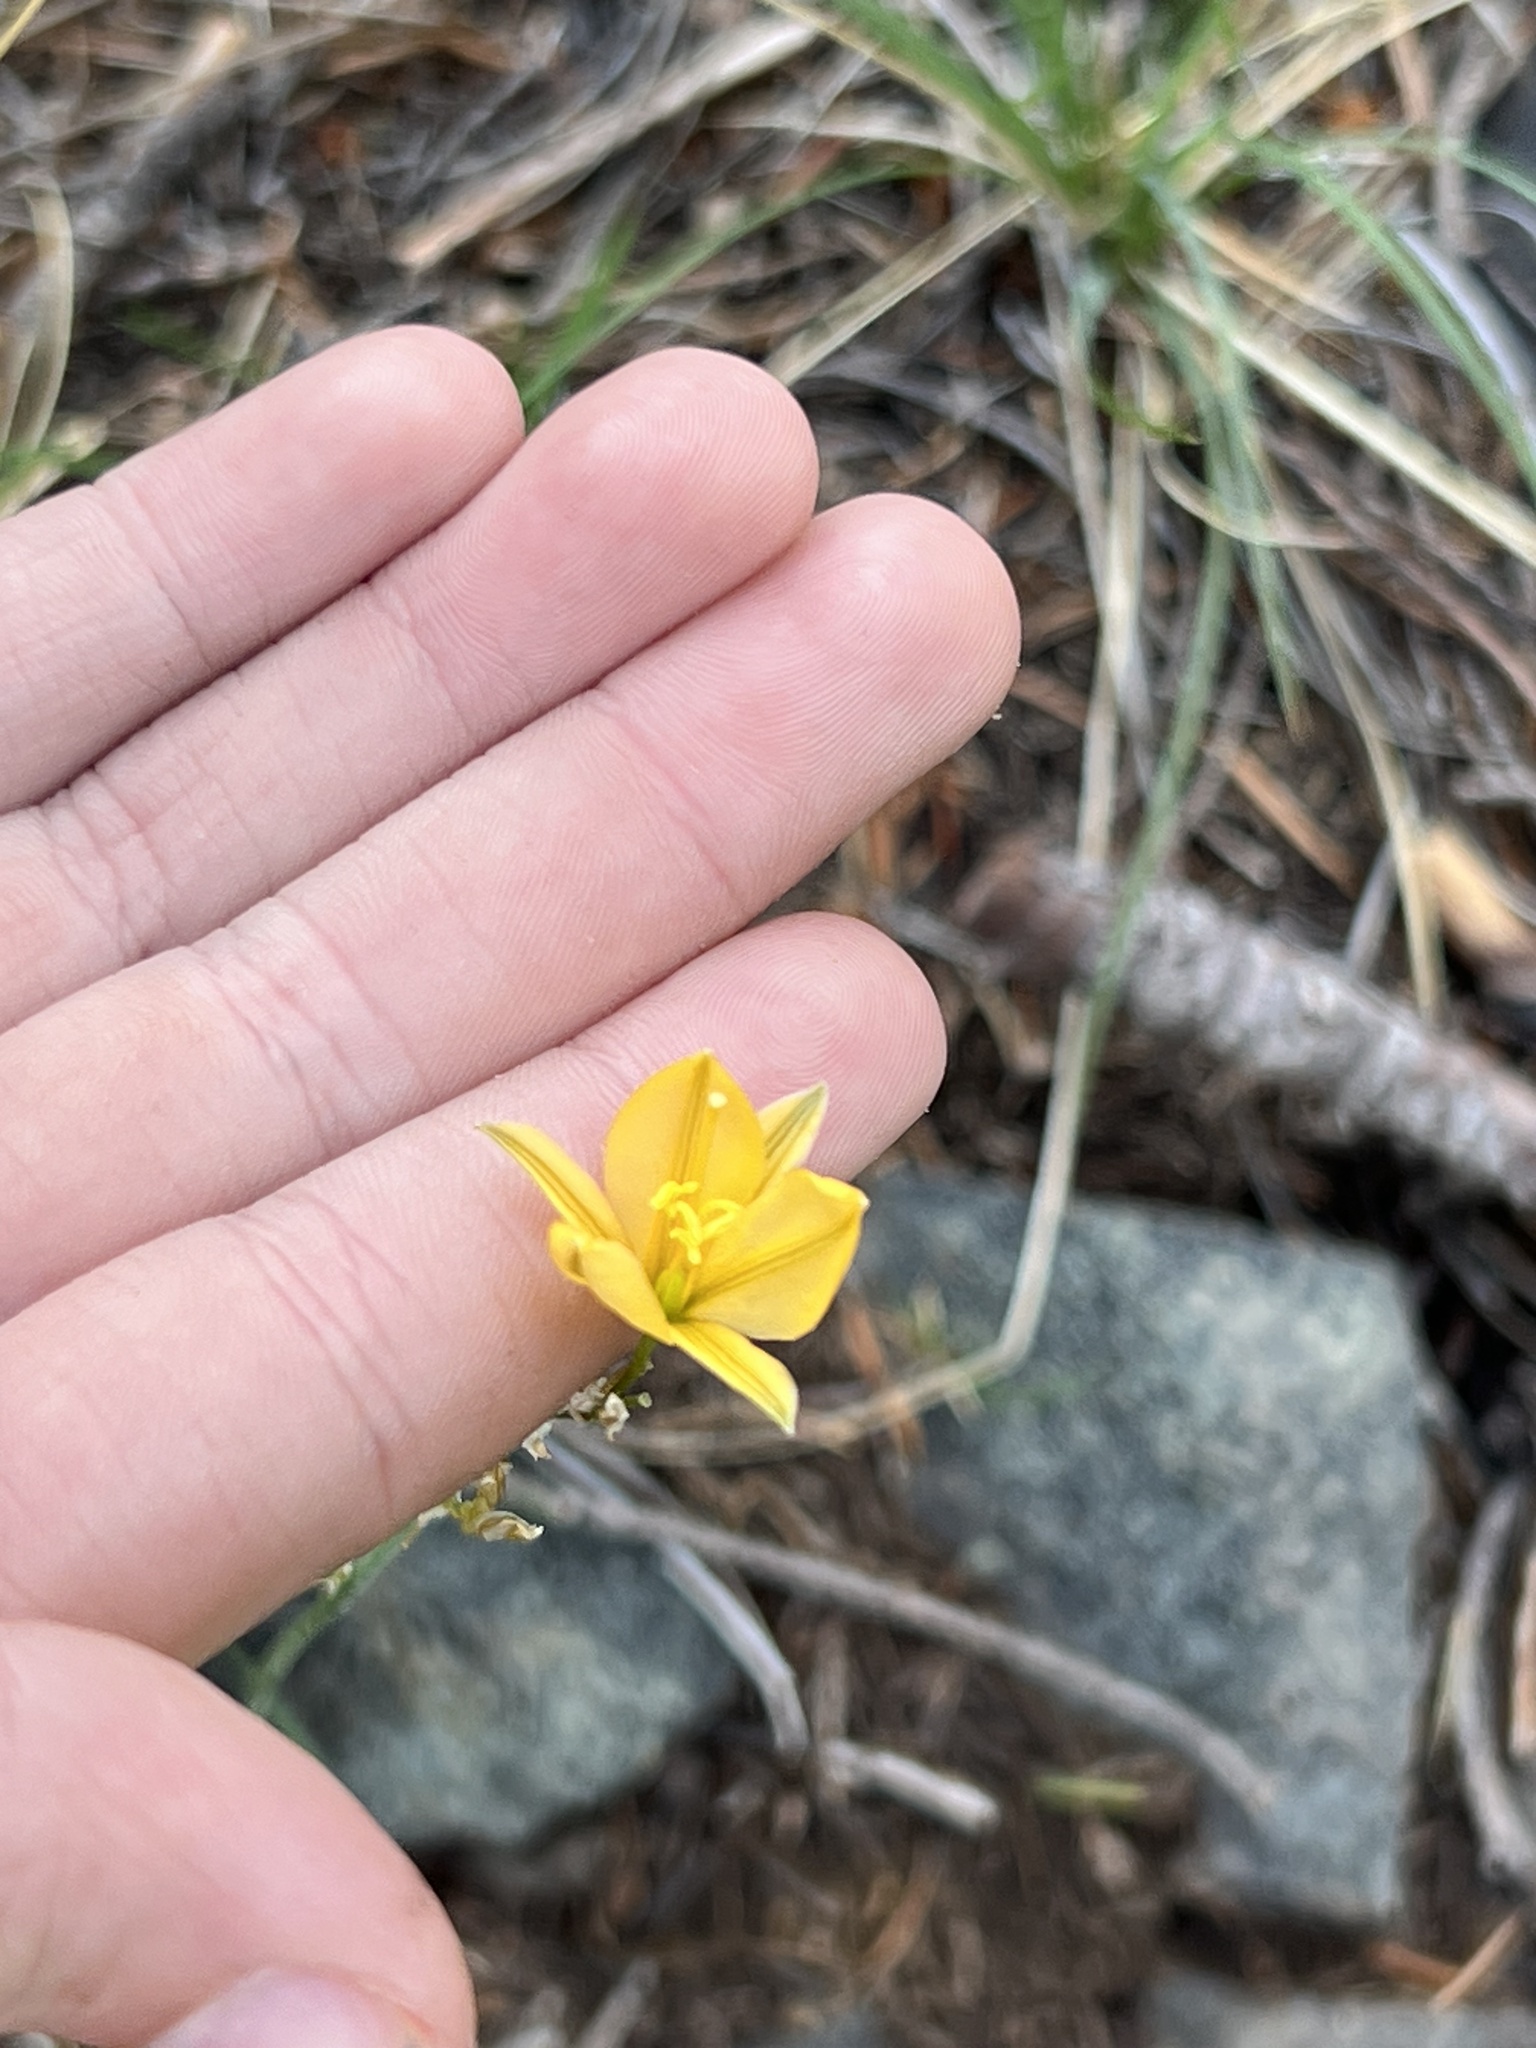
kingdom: Plantae
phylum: Tracheophyta
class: Liliopsida
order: Asparagales
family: Asparagaceae
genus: Echeandia
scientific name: Echeandia flavescens
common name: Amberlily
